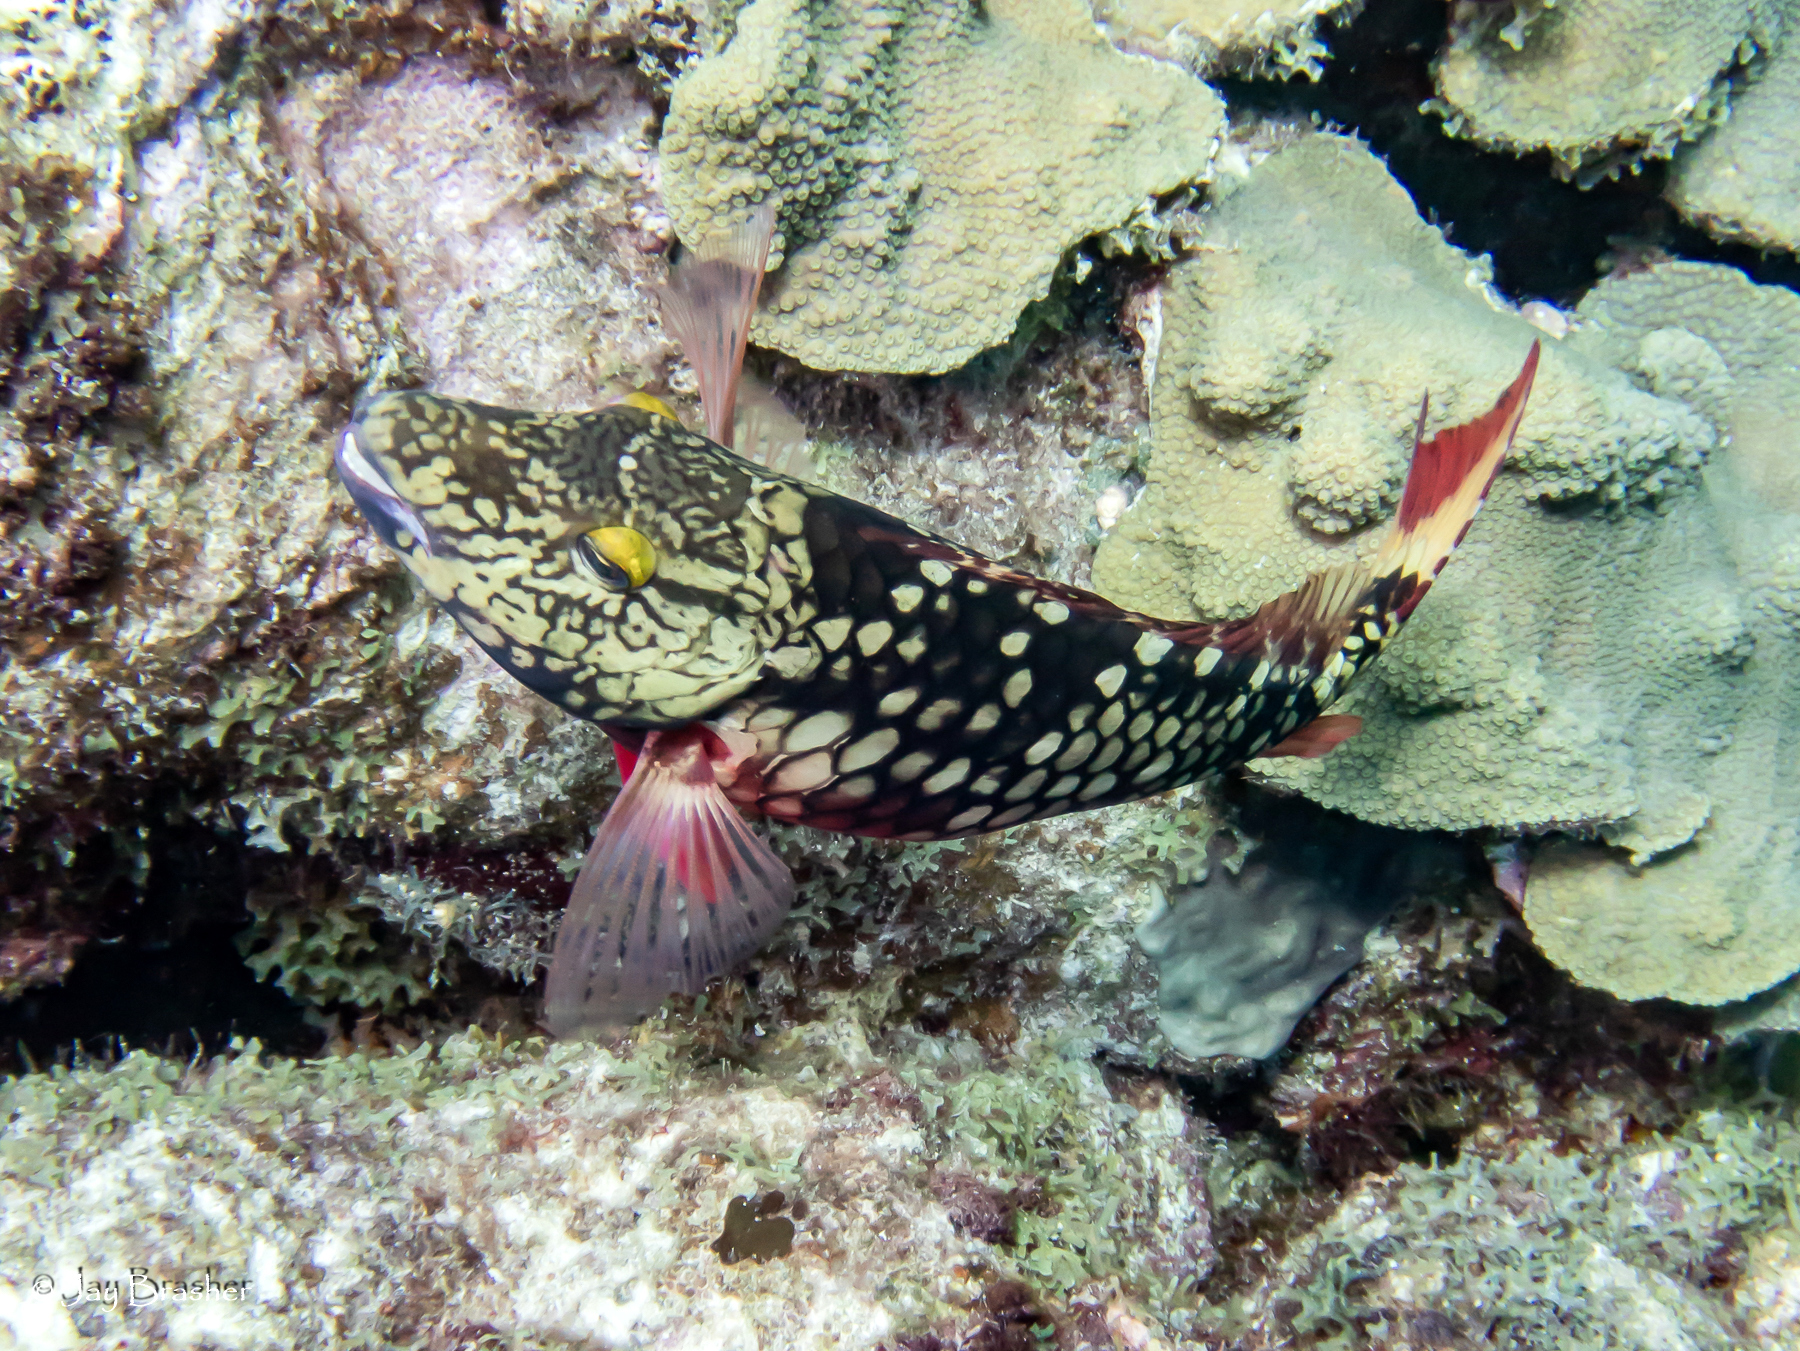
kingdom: Animalia
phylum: Chordata
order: Perciformes
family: Scaridae
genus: Sparisoma
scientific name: Sparisoma viride
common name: Stoplight parrotfish
